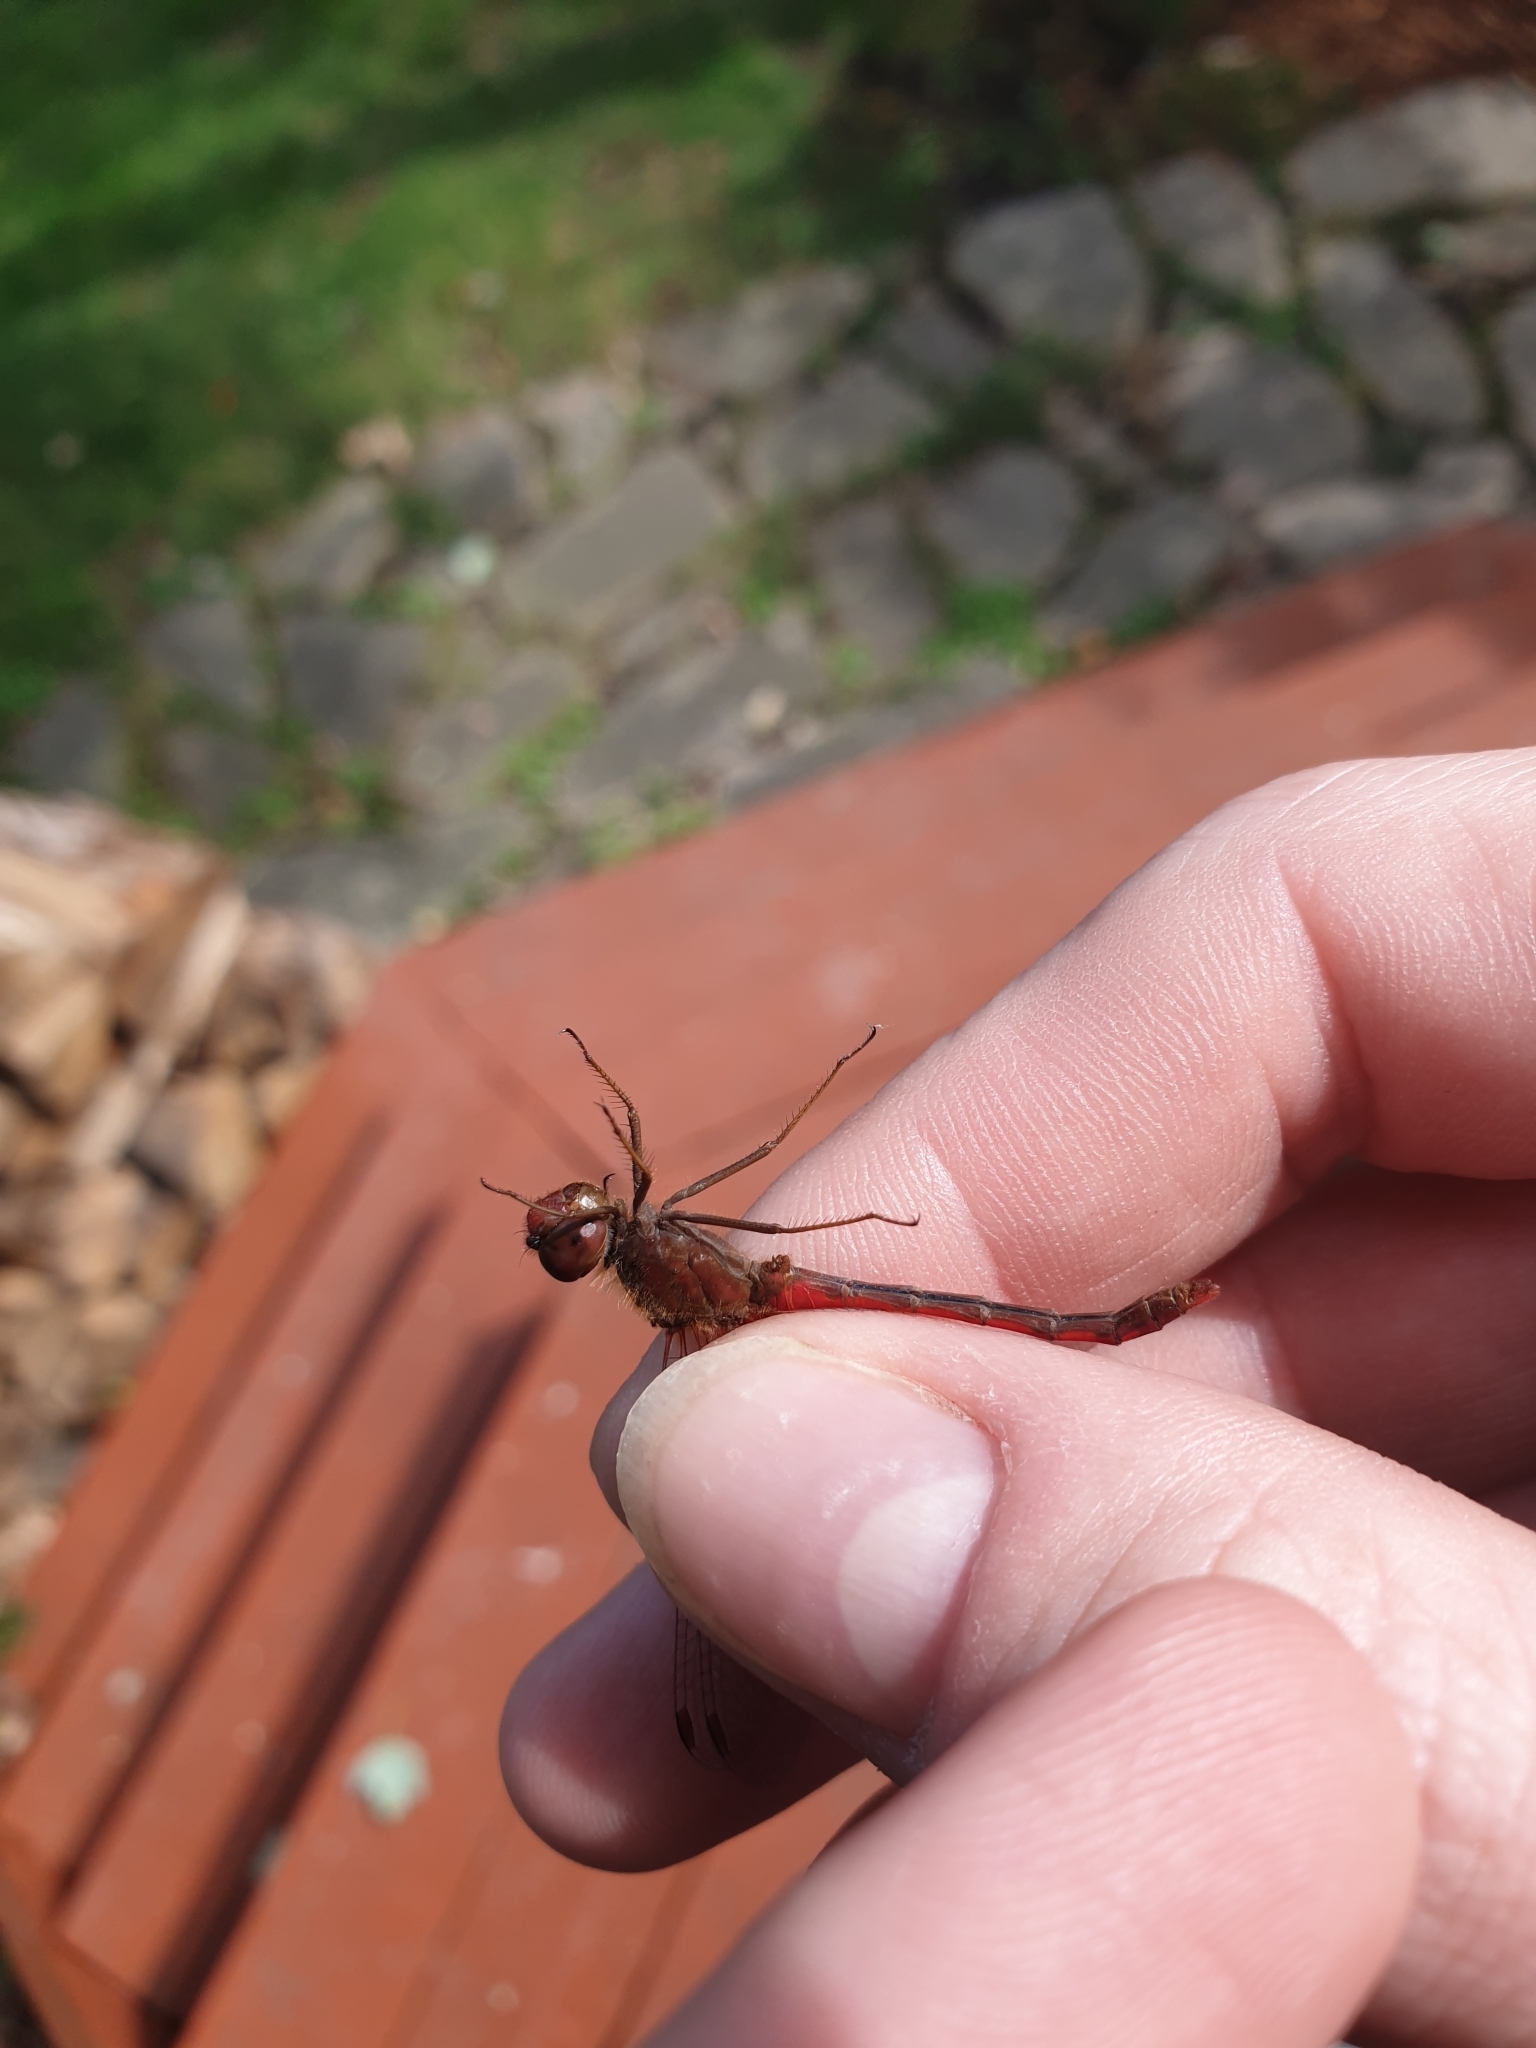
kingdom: Animalia
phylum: Arthropoda
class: Insecta
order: Odonata
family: Libellulidae
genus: Sympetrum
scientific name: Sympetrum vicinum
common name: Autumn meadowhawk
